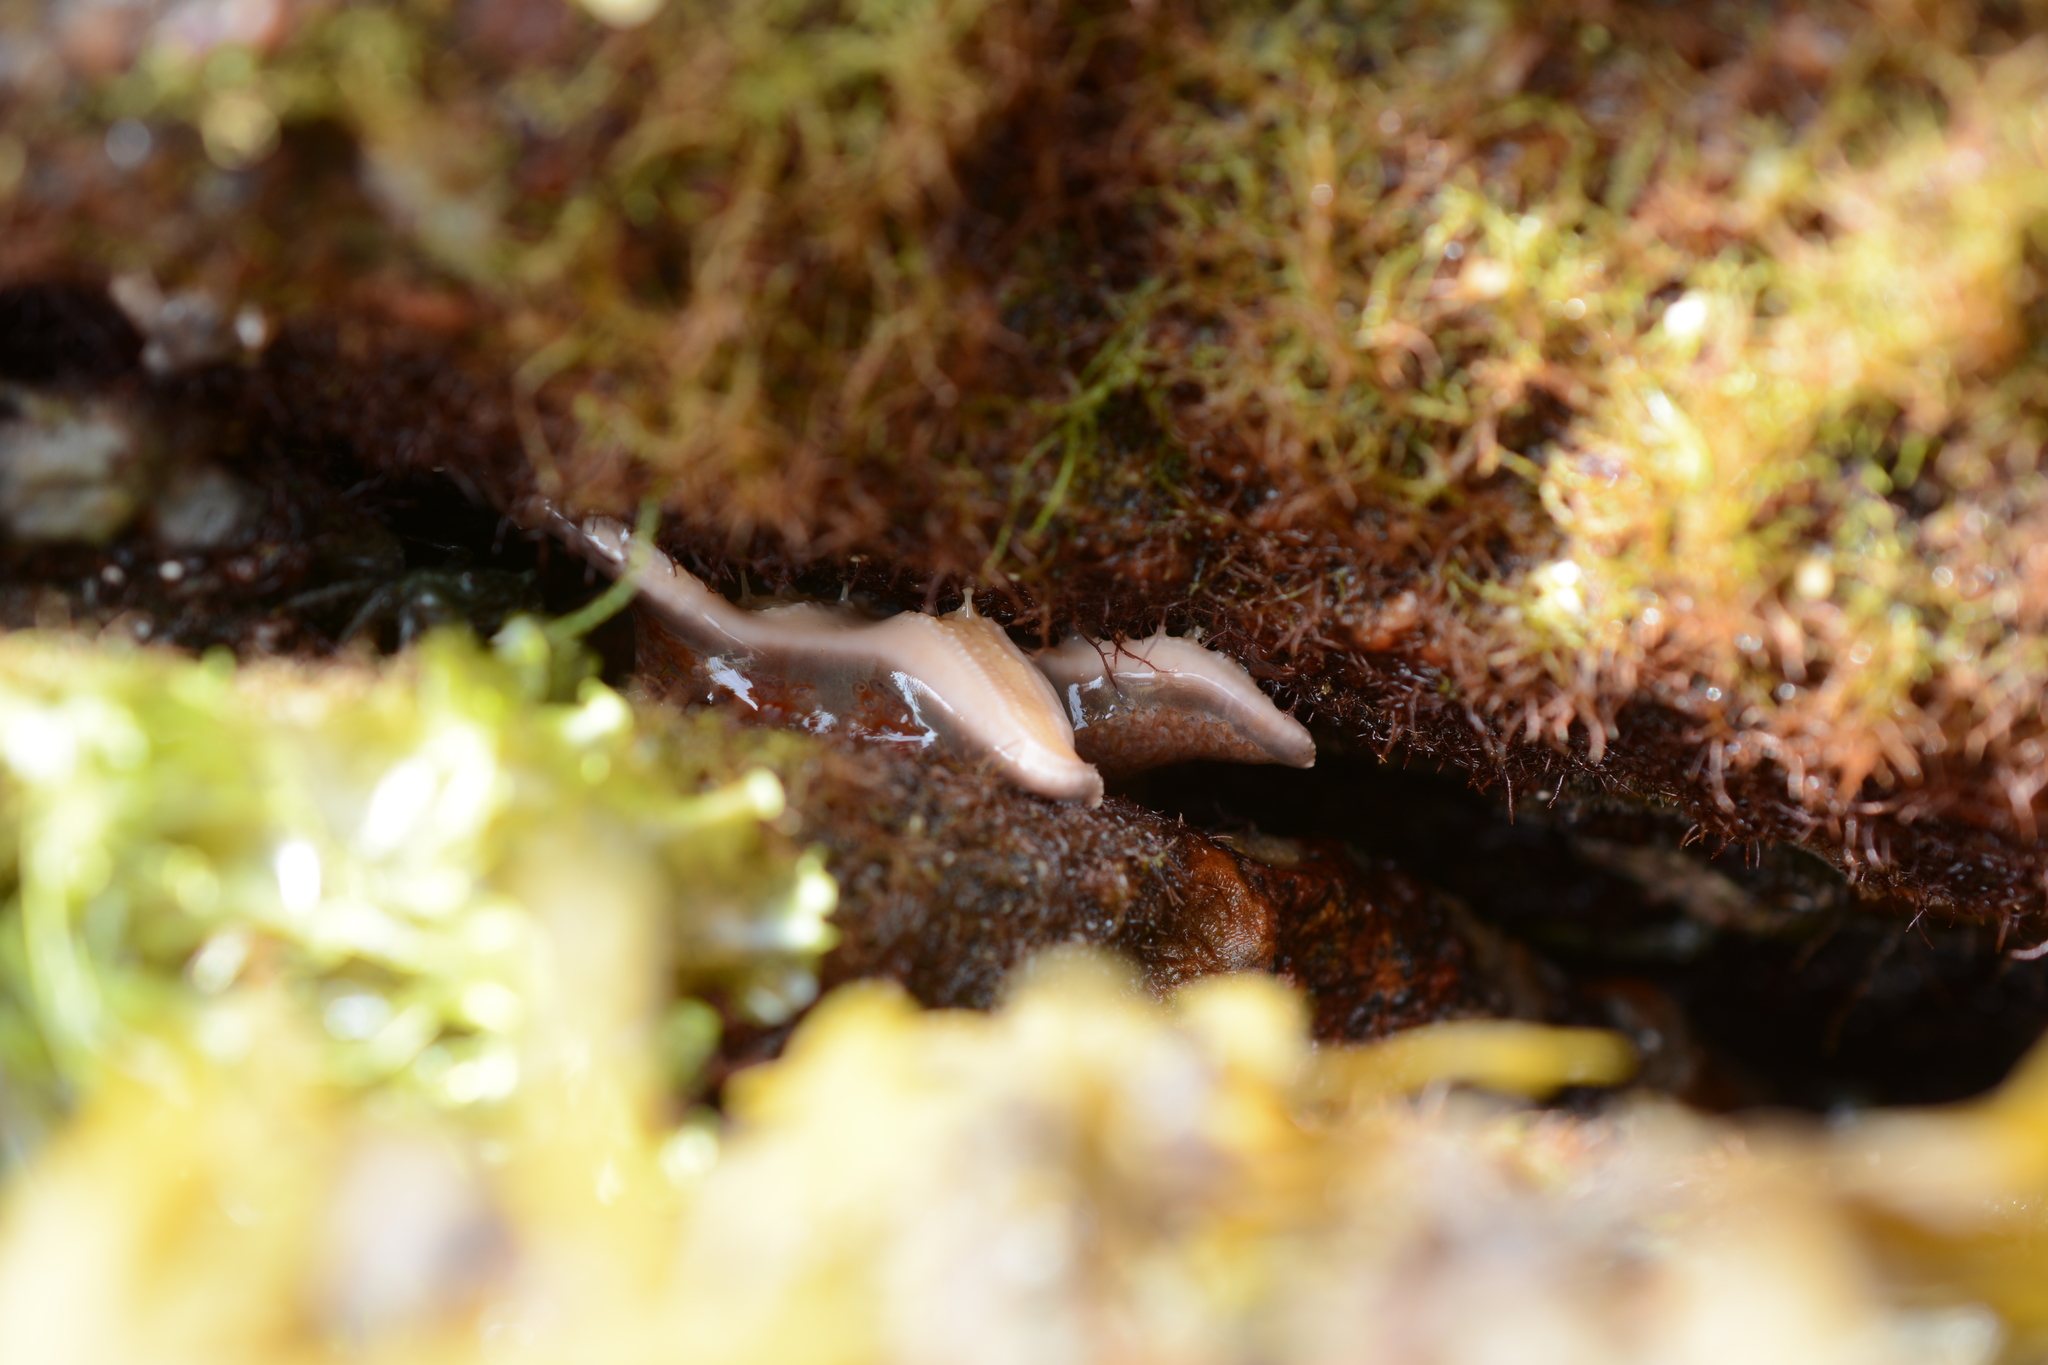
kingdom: Animalia
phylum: Echinodermata
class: Asteroidea
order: Valvatida
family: Asteropseidae
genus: Dermasterias
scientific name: Dermasterias imbricata
